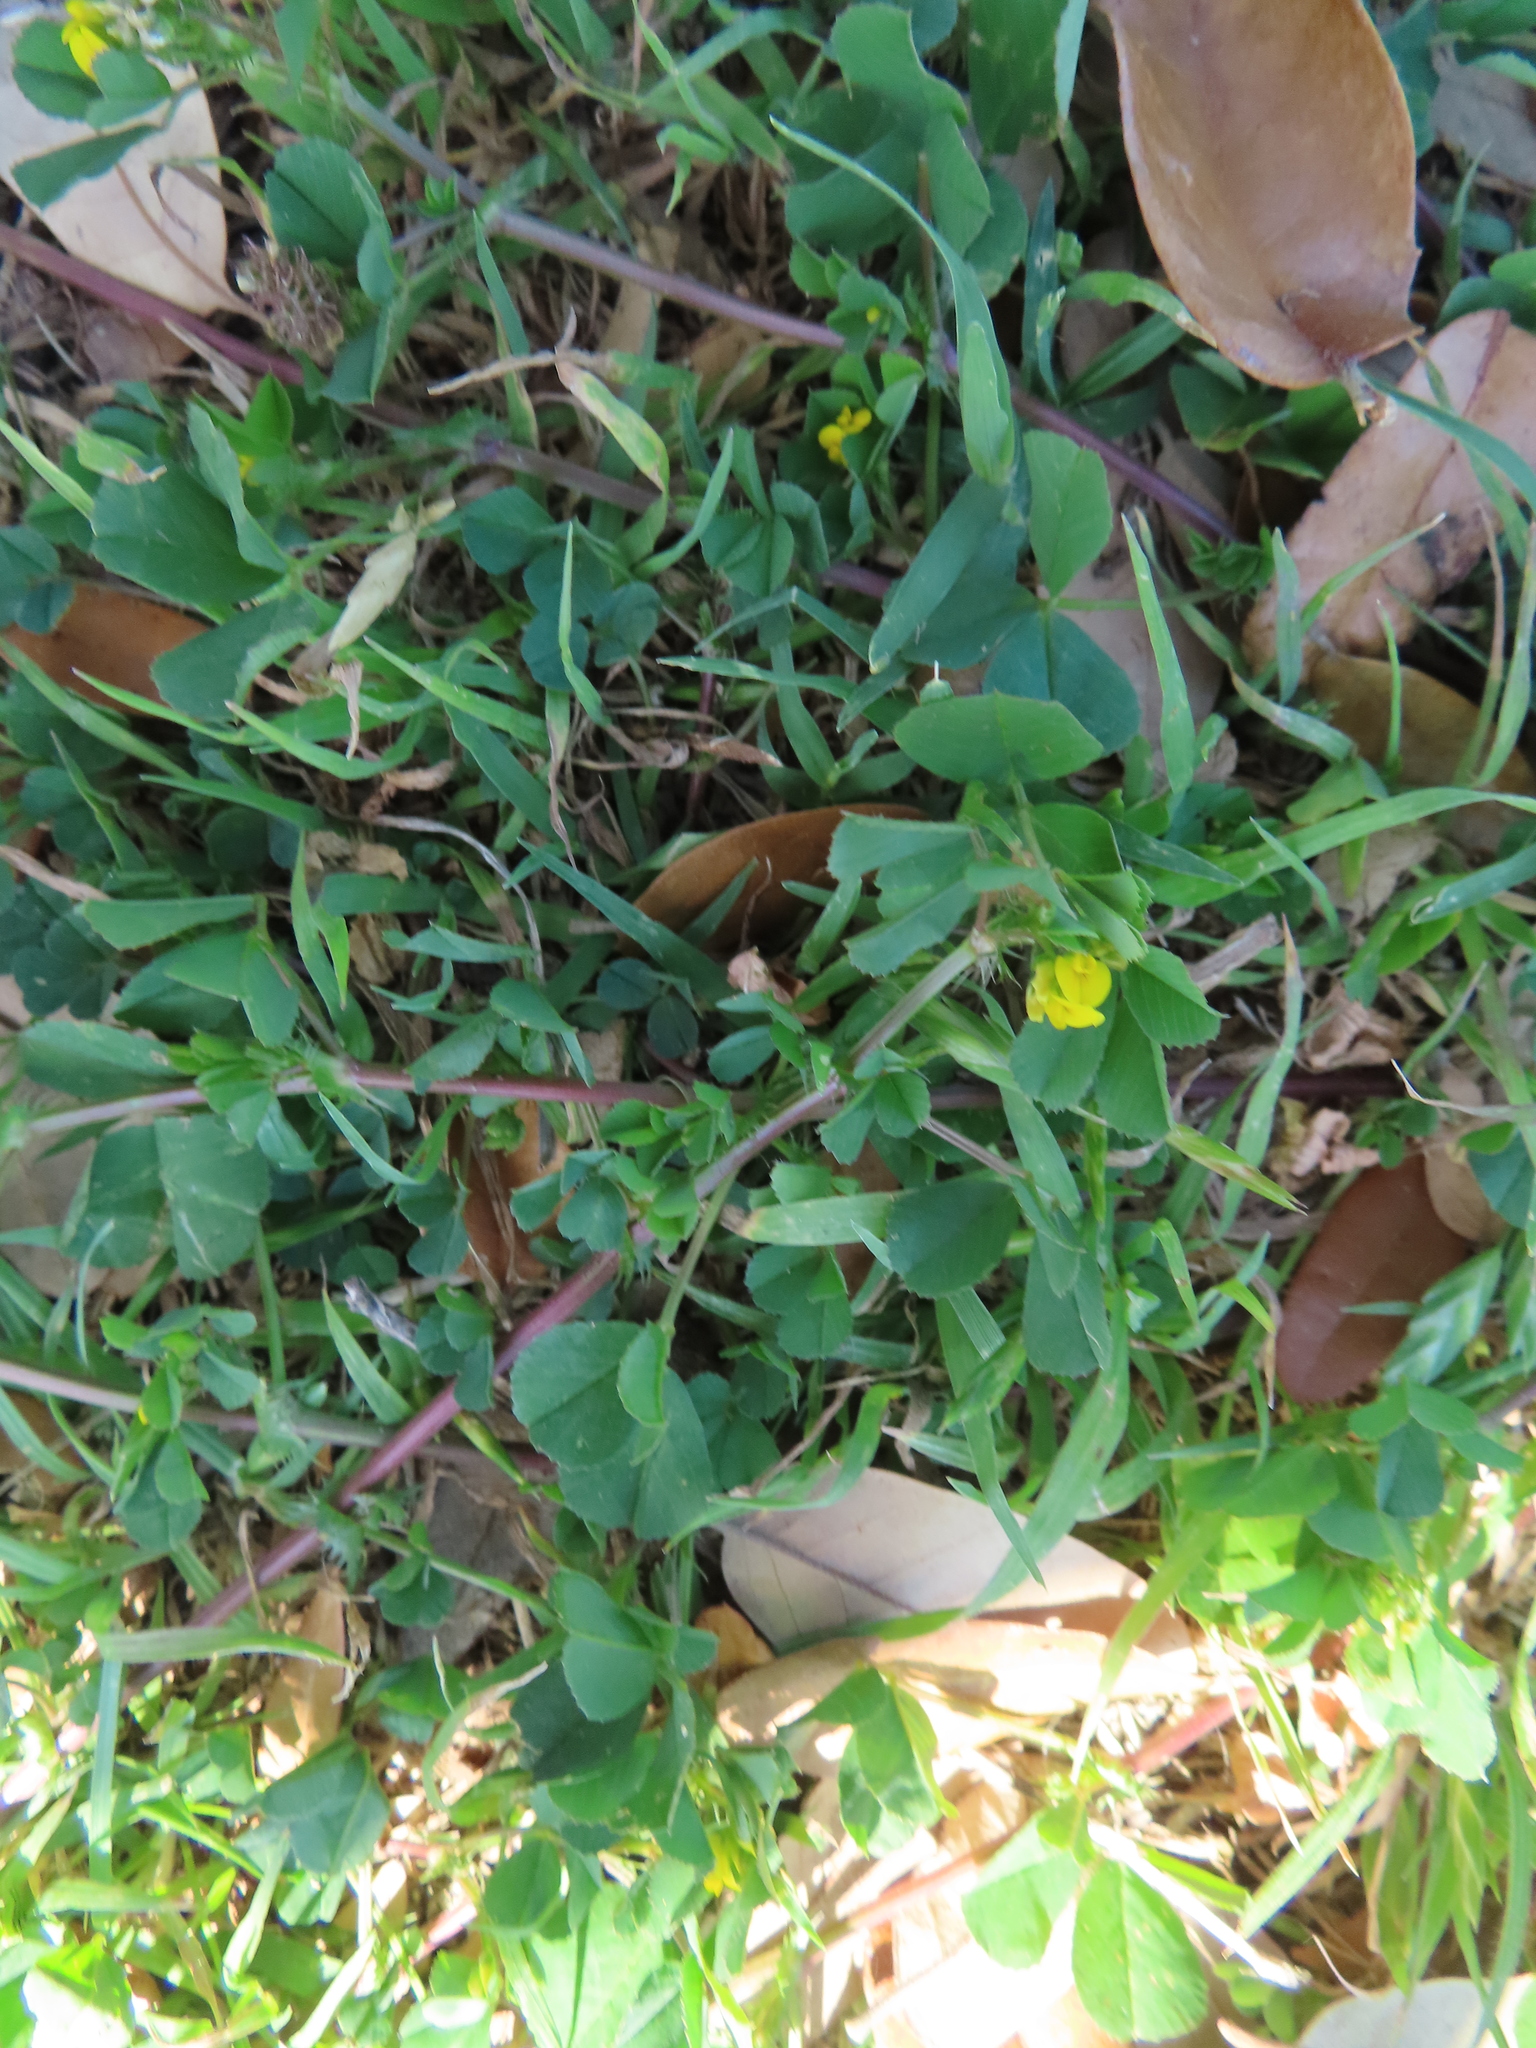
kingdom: Plantae
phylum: Tracheophyta
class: Magnoliopsida
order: Fabales
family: Fabaceae
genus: Medicago
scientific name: Medicago polymorpha
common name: Burclover
